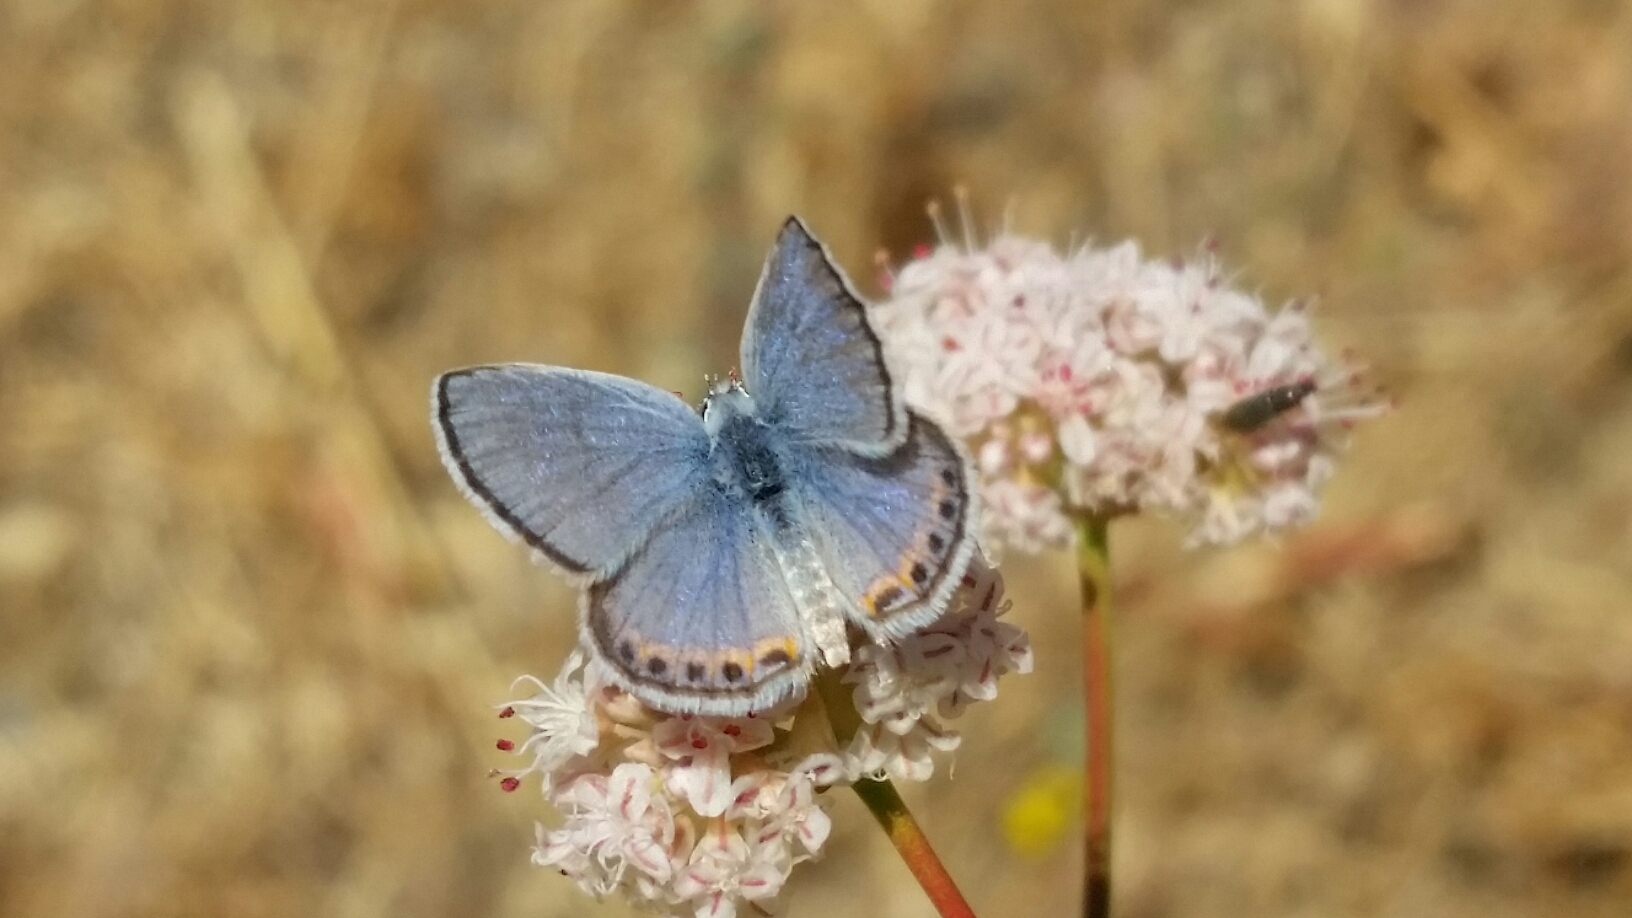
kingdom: Animalia
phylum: Arthropoda
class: Insecta
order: Lepidoptera
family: Lycaenidae
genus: Icaricia
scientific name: Icaricia acmon
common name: Acmon blue
